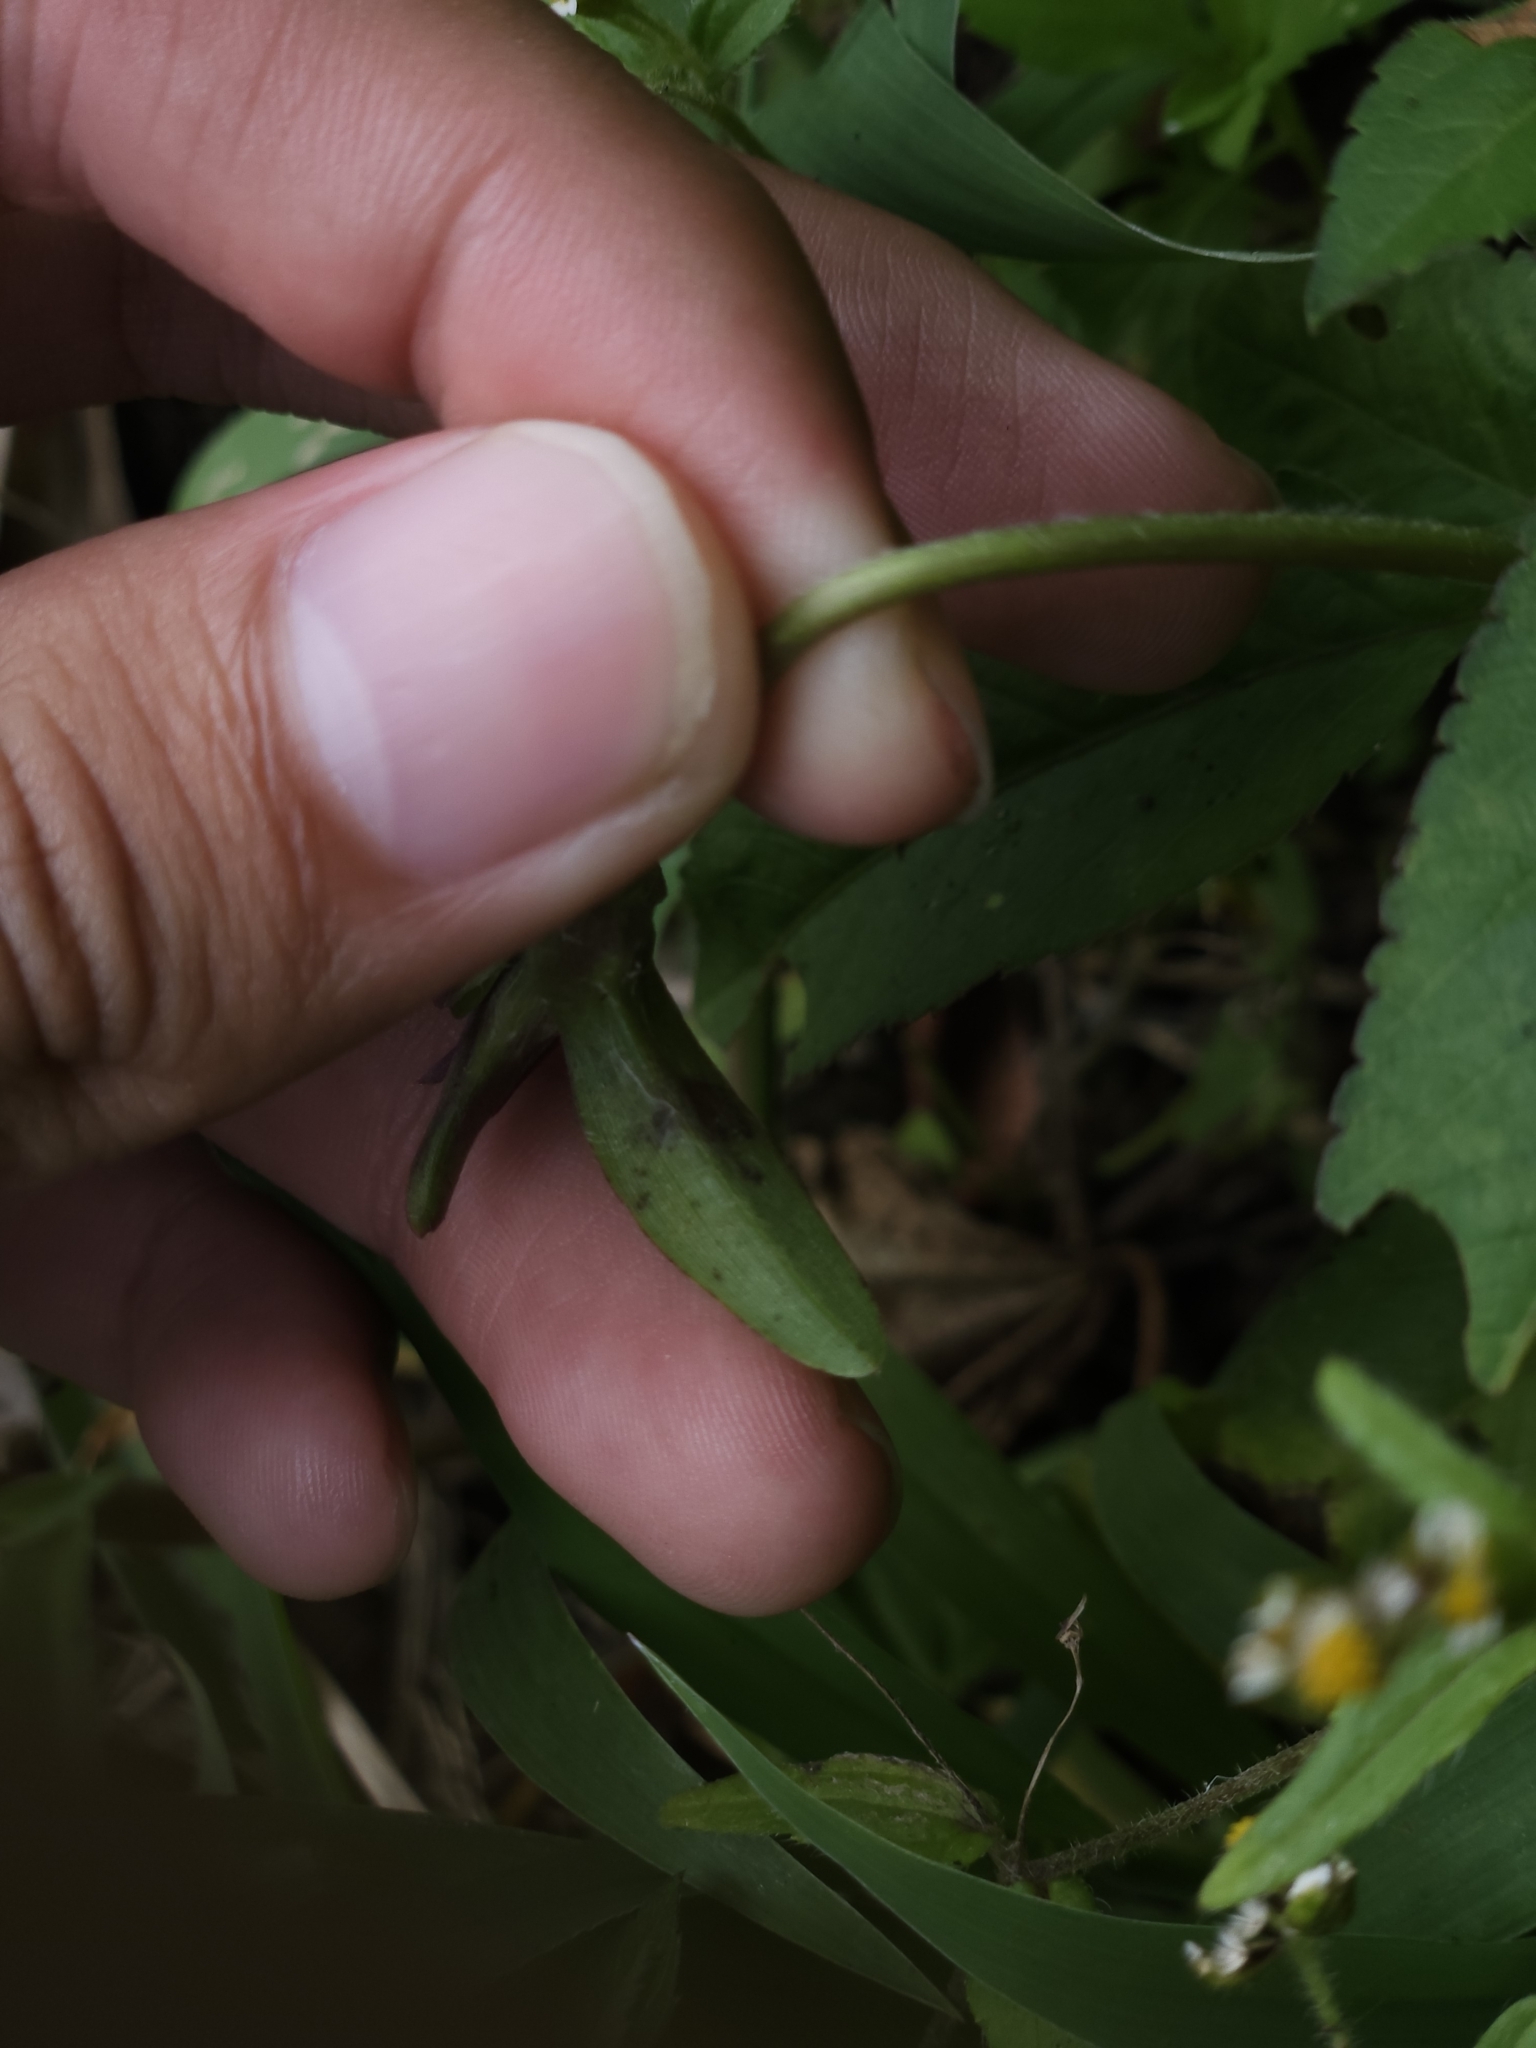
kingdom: Plantae
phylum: Tracheophyta
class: Liliopsida
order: Commelinales
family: Commelinaceae
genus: Cyanotis
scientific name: Cyanotis arachnoidea
